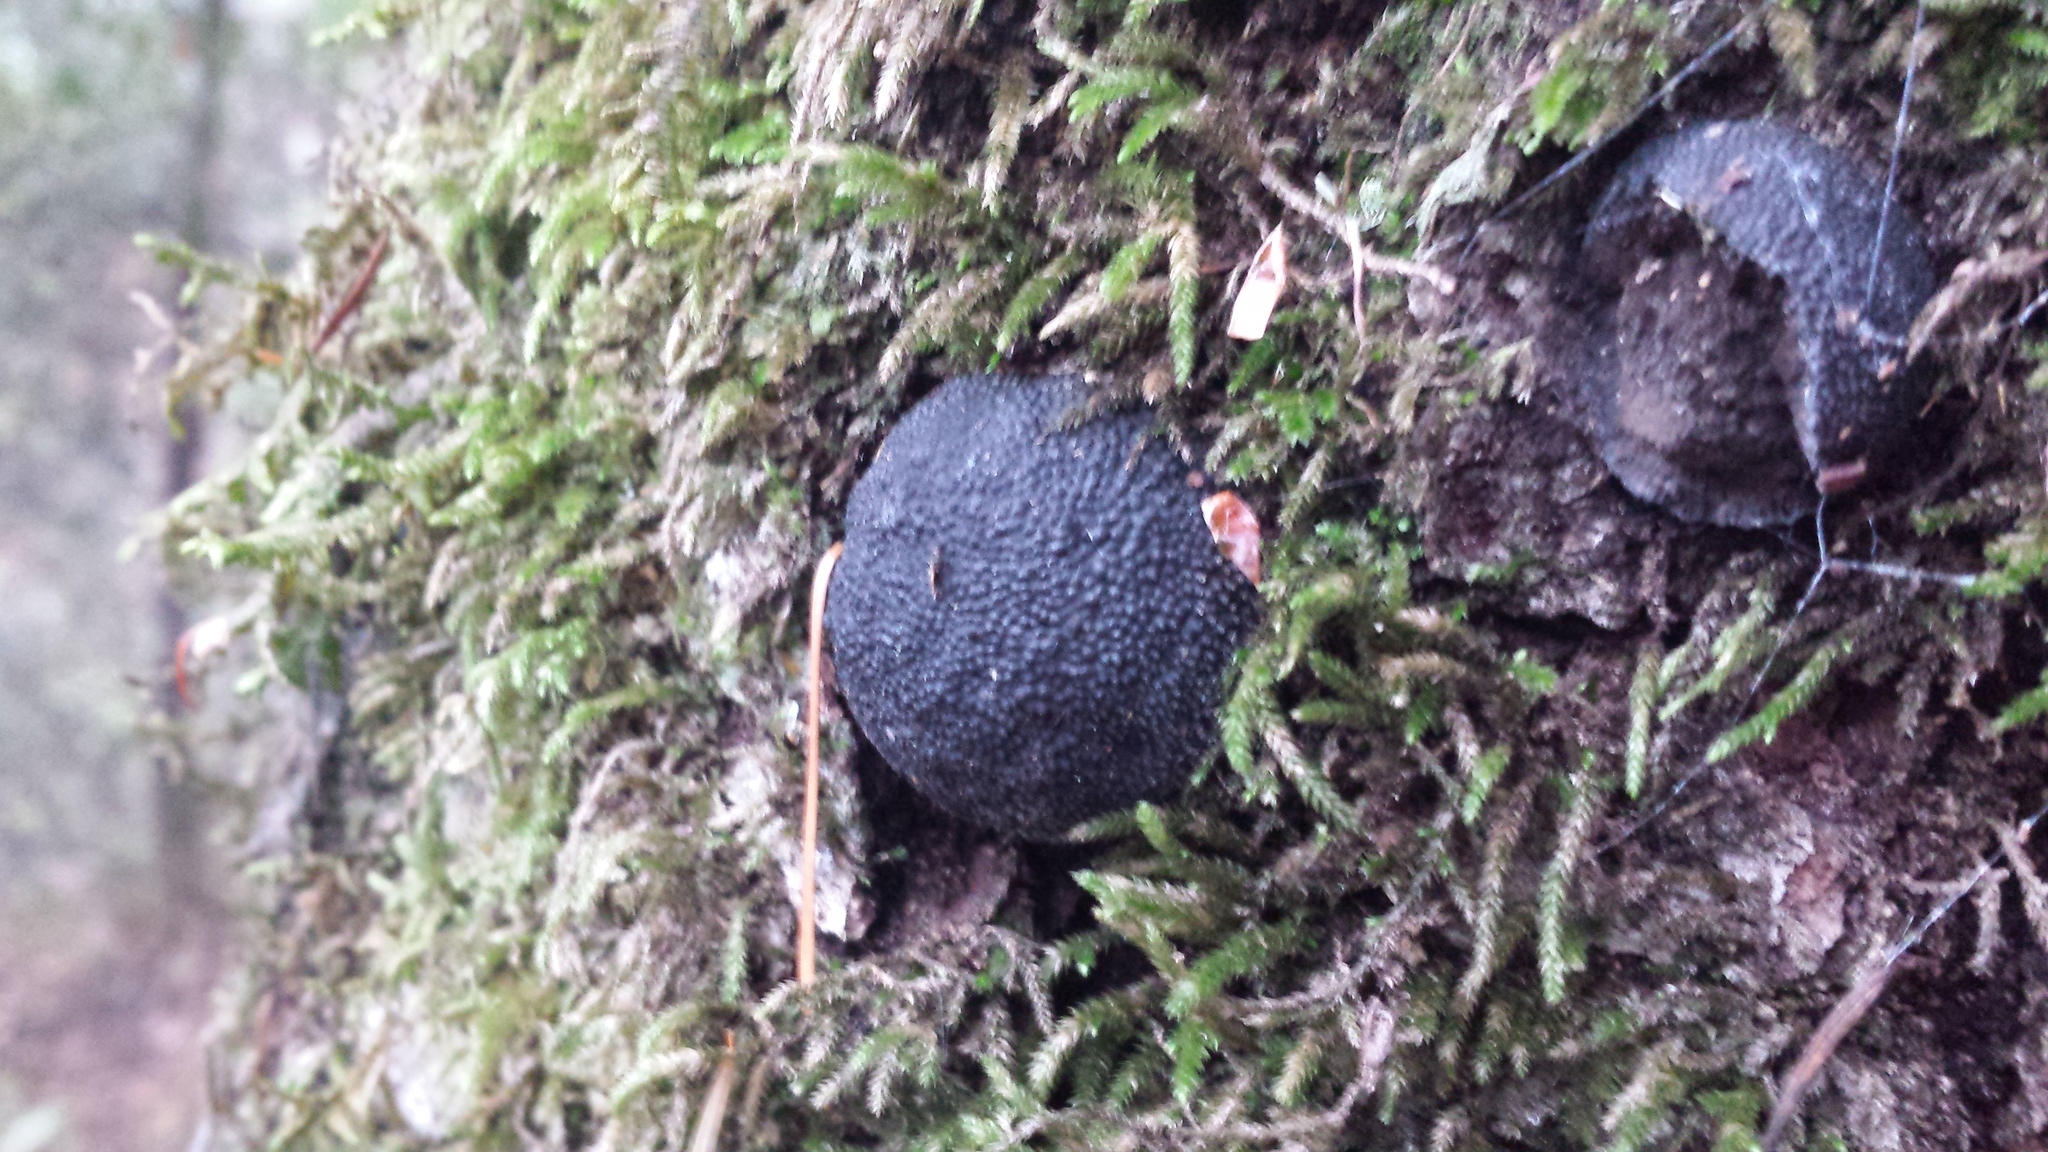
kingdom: Fungi
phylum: Ascomycota
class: Sordariomycetes
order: Xylariales
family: Hypoxylaceae
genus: Annulohypoxylon
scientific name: Annulohypoxylon thouarsianum
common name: Cramp balls
